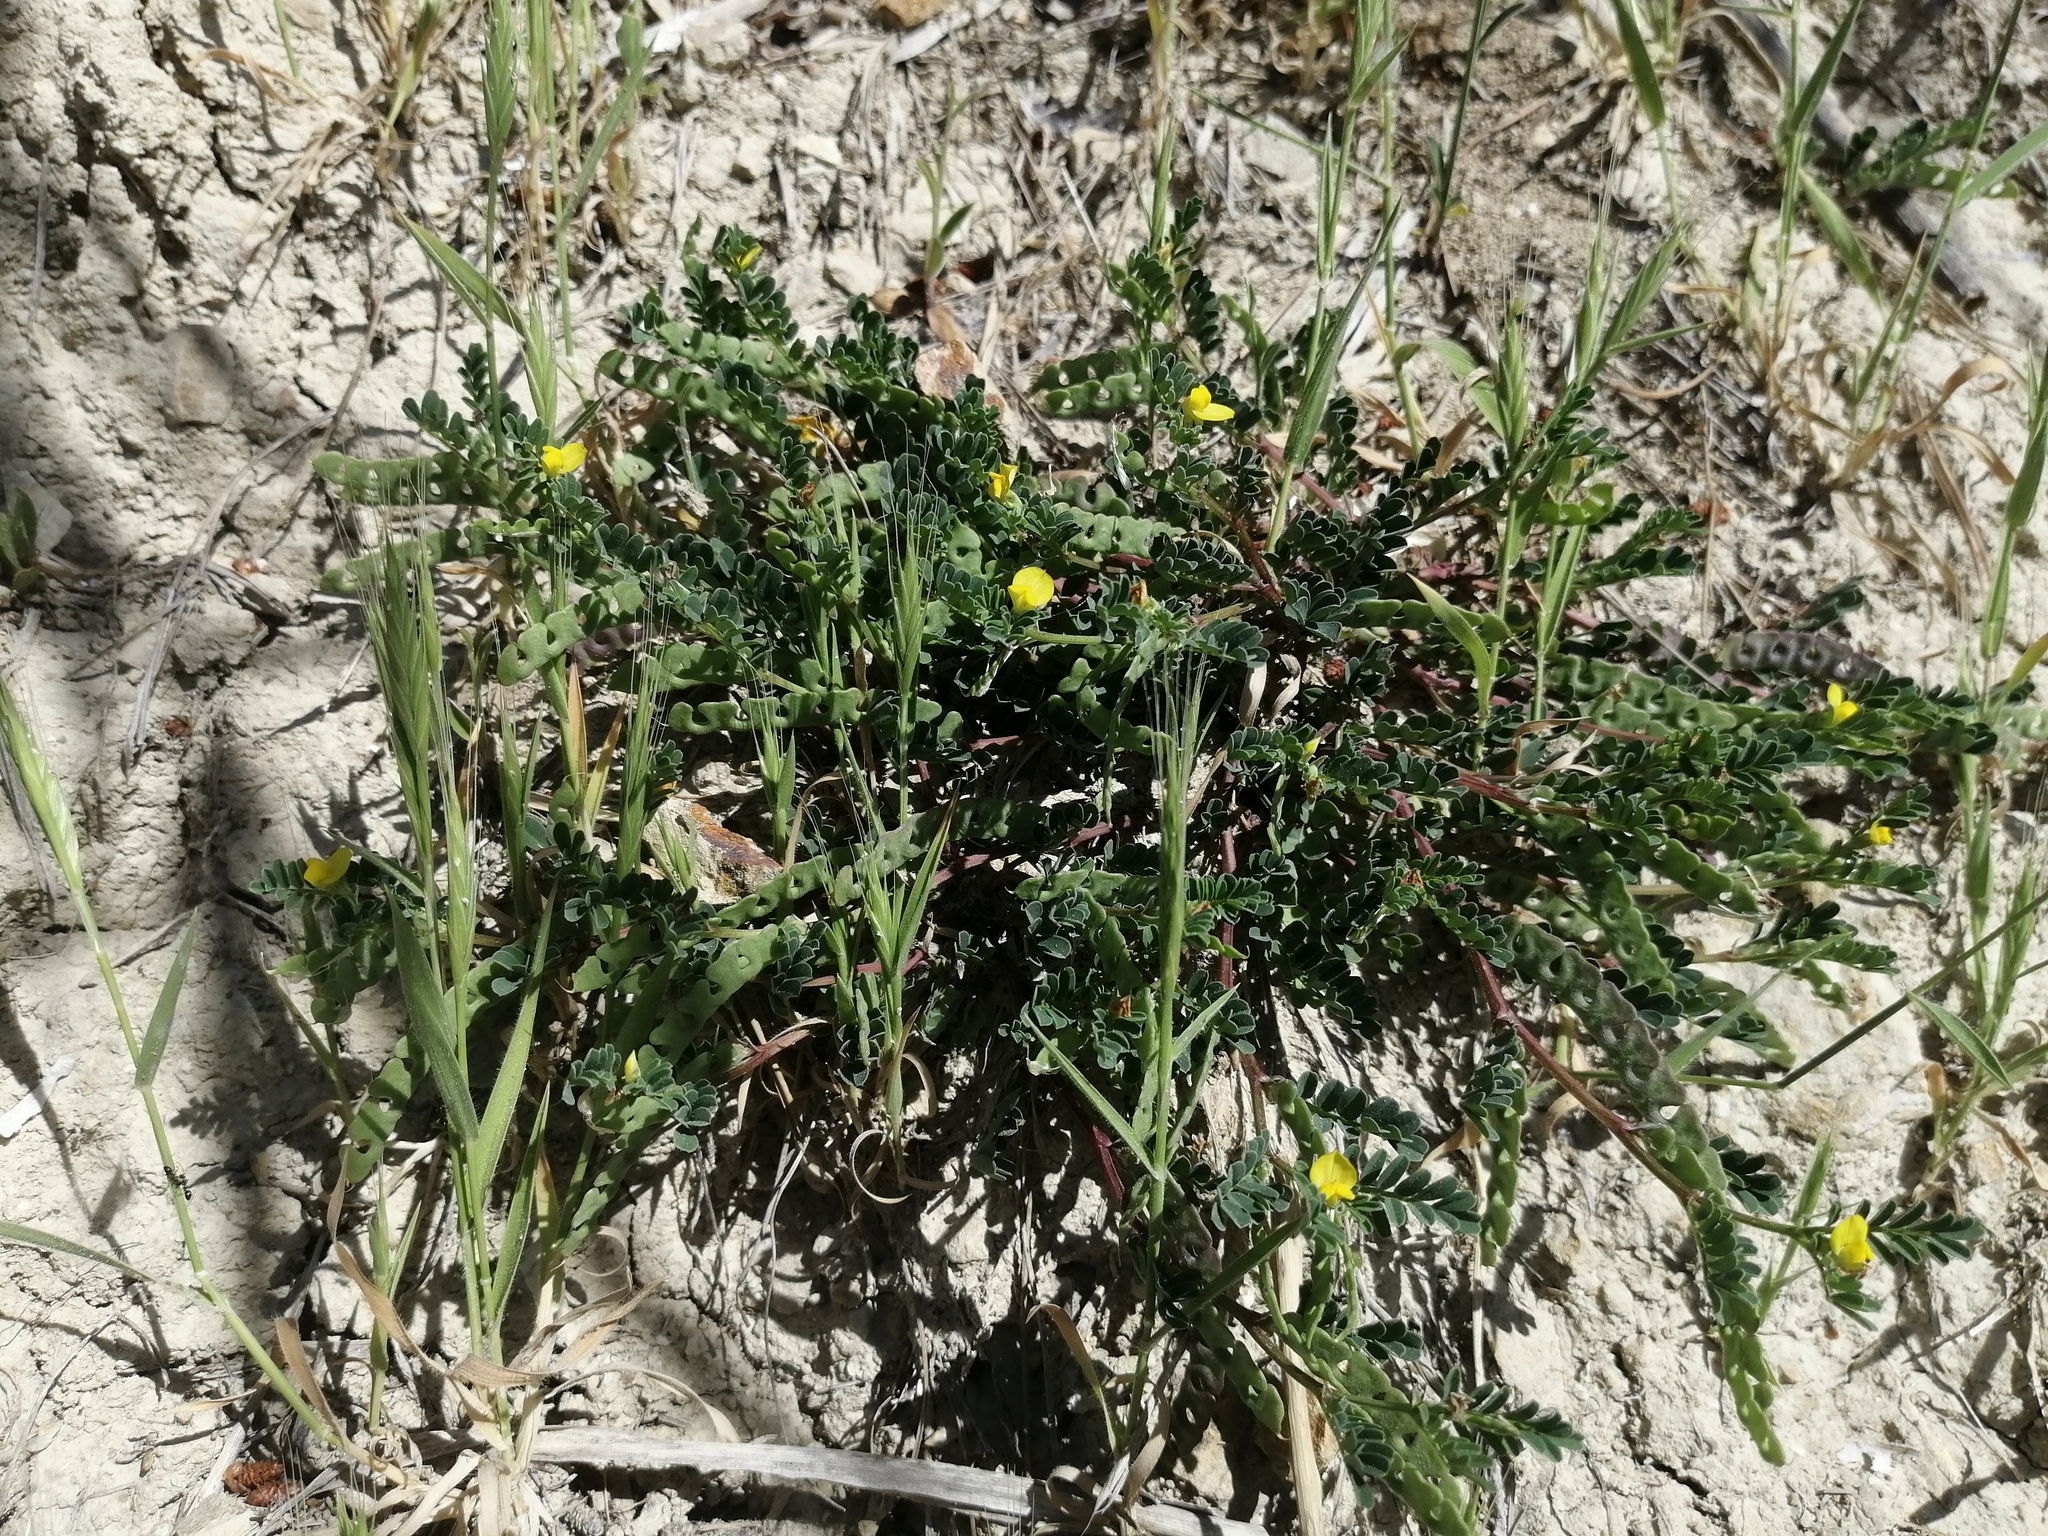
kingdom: Plantae
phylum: Tracheophyta
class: Liliopsida
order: Poales
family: Poaceae
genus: Brachypodium
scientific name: Brachypodium distachyon
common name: Stiff brome
